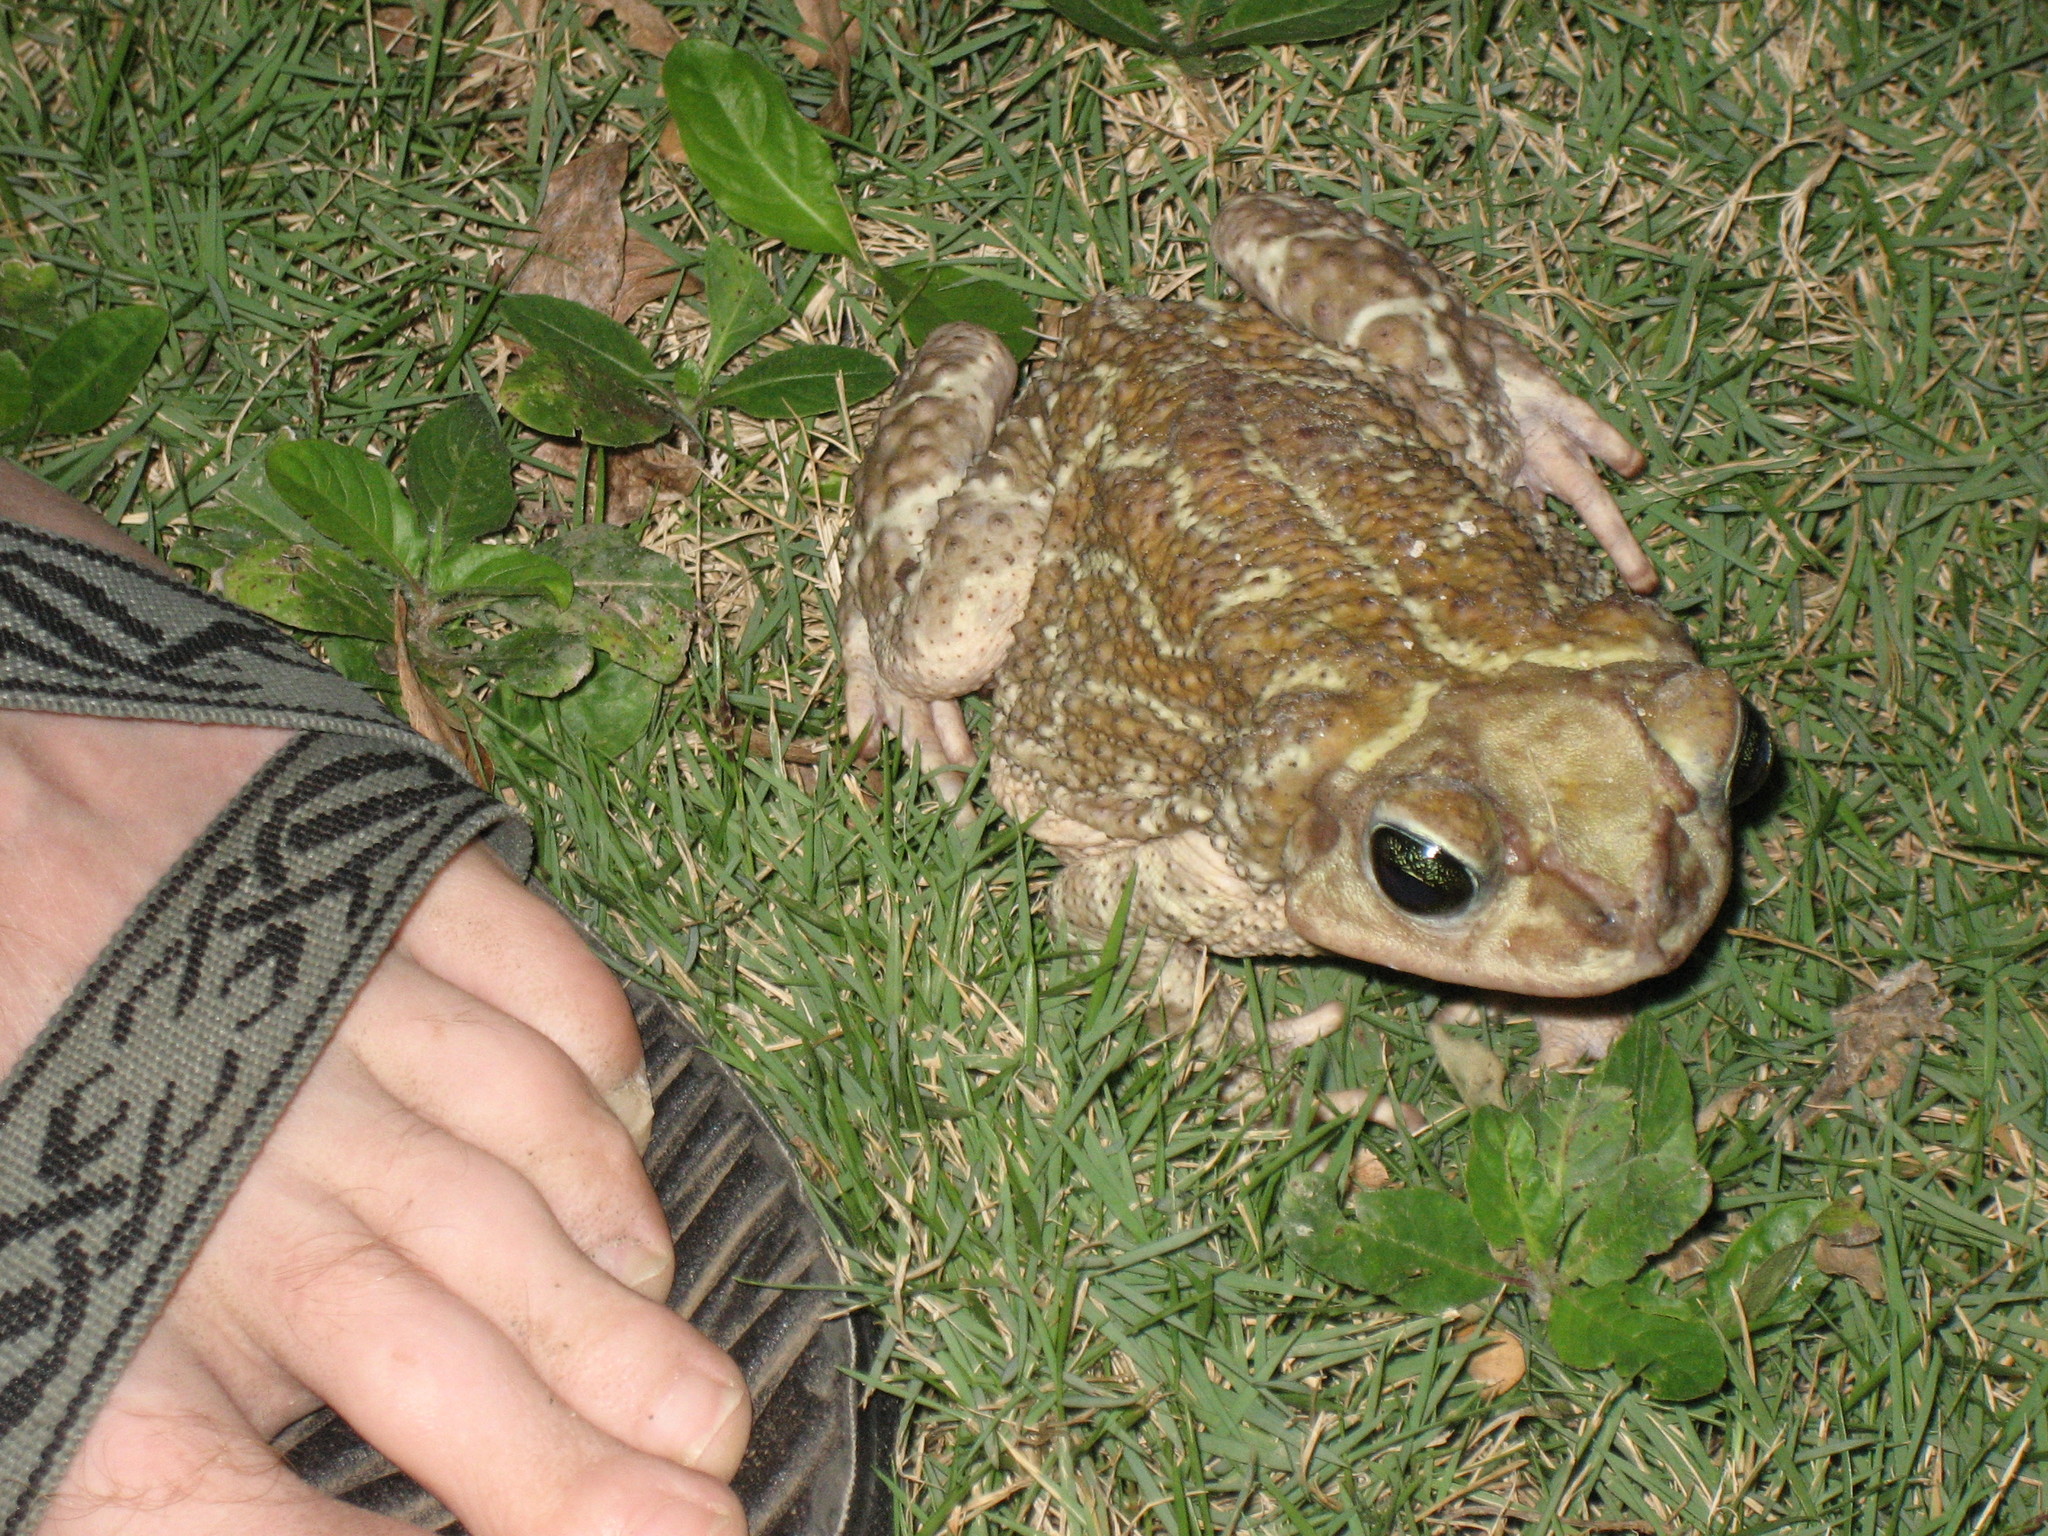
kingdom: Animalia
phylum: Chordata
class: Amphibia
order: Anura
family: Bufonidae
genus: Peltophryne
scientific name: Peltophryne peltocephala
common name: Eastern cuba giant toad
